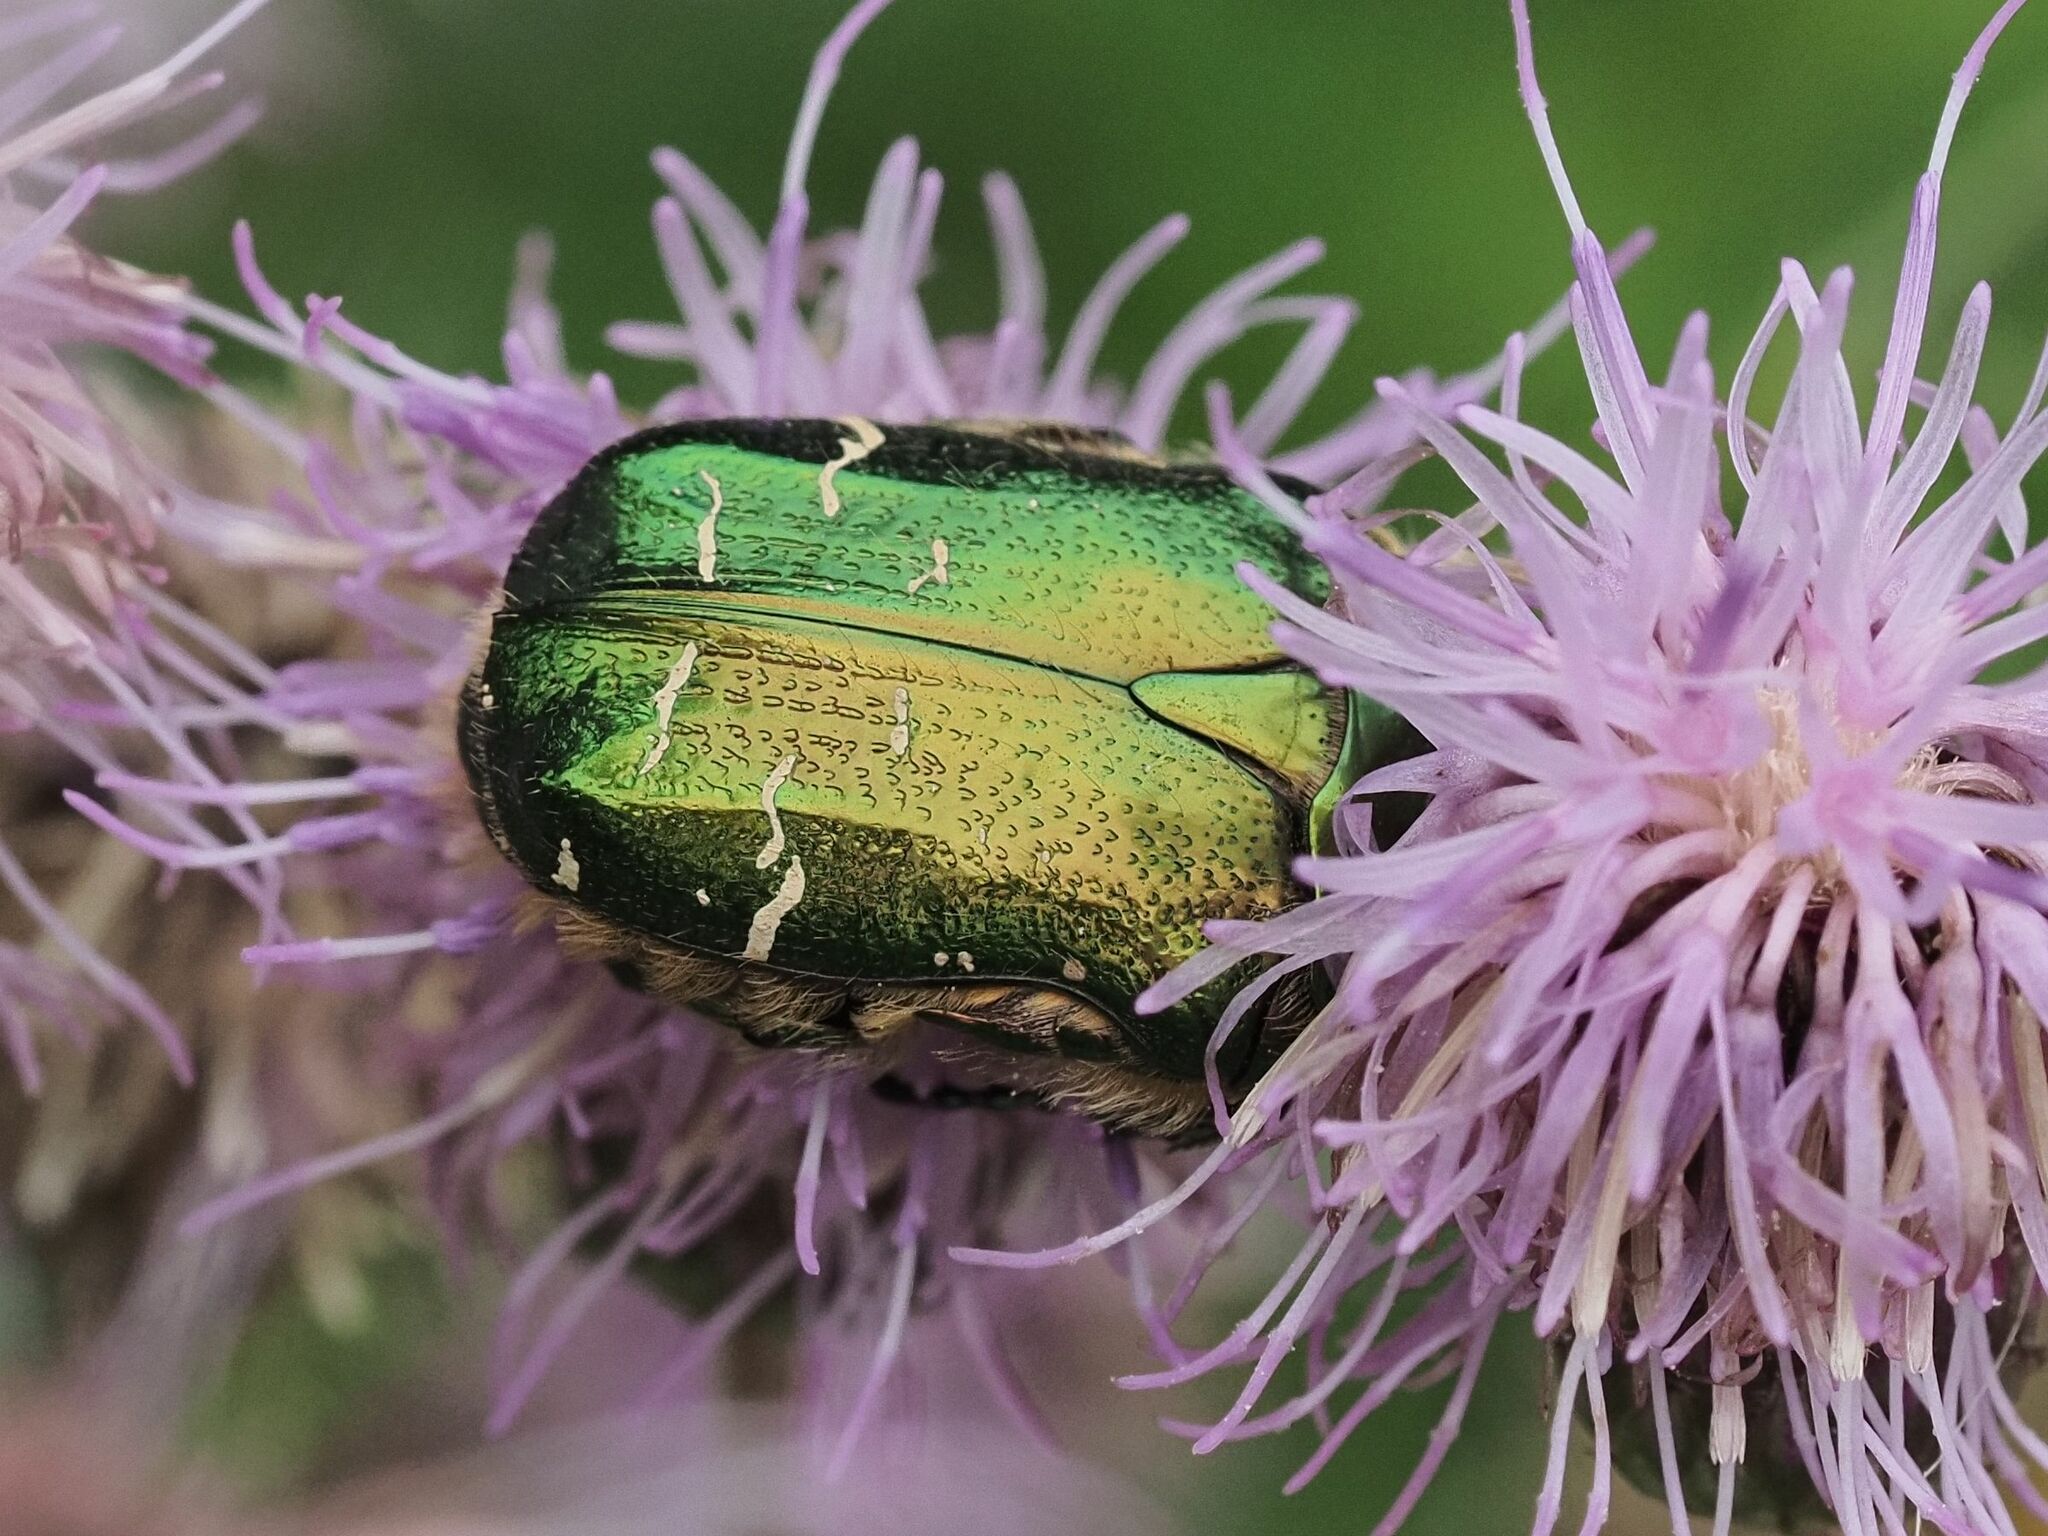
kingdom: Animalia
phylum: Arthropoda
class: Insecta
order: Coleoptera
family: Scarabaeidae
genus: Cetonia
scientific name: Cetonia aurata
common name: Rose chafer
